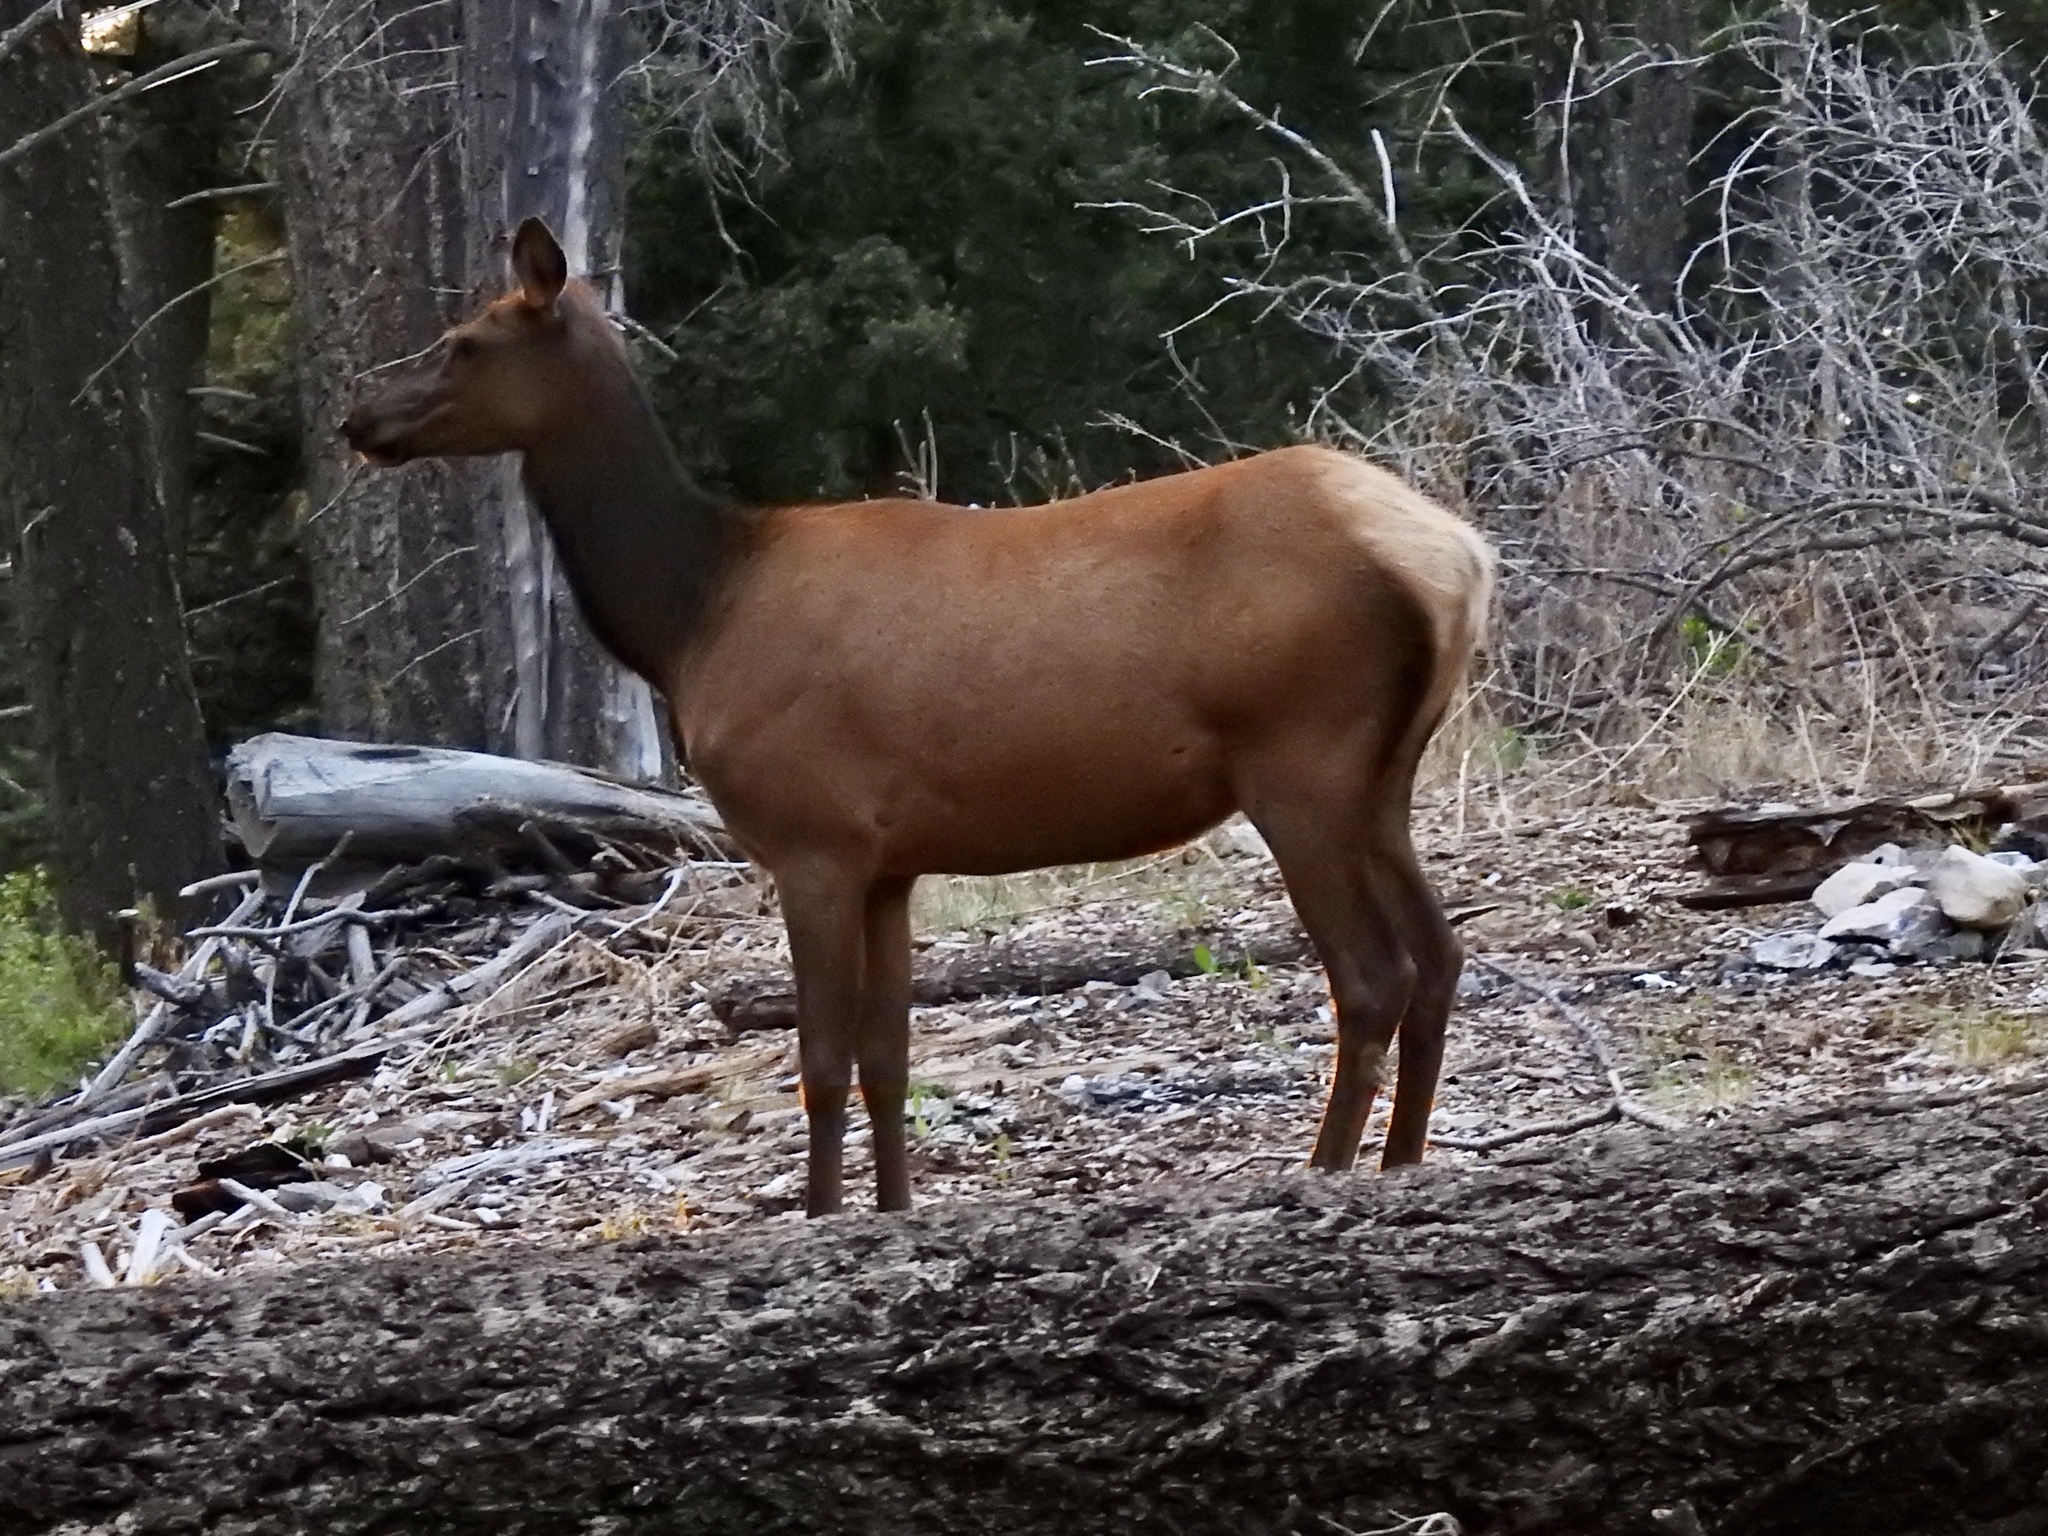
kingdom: Animalia
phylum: Chordata
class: Mammalia
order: Artiodactyla
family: Cervidae
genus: Cervus
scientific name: Cervus elaphus
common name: Red deer
